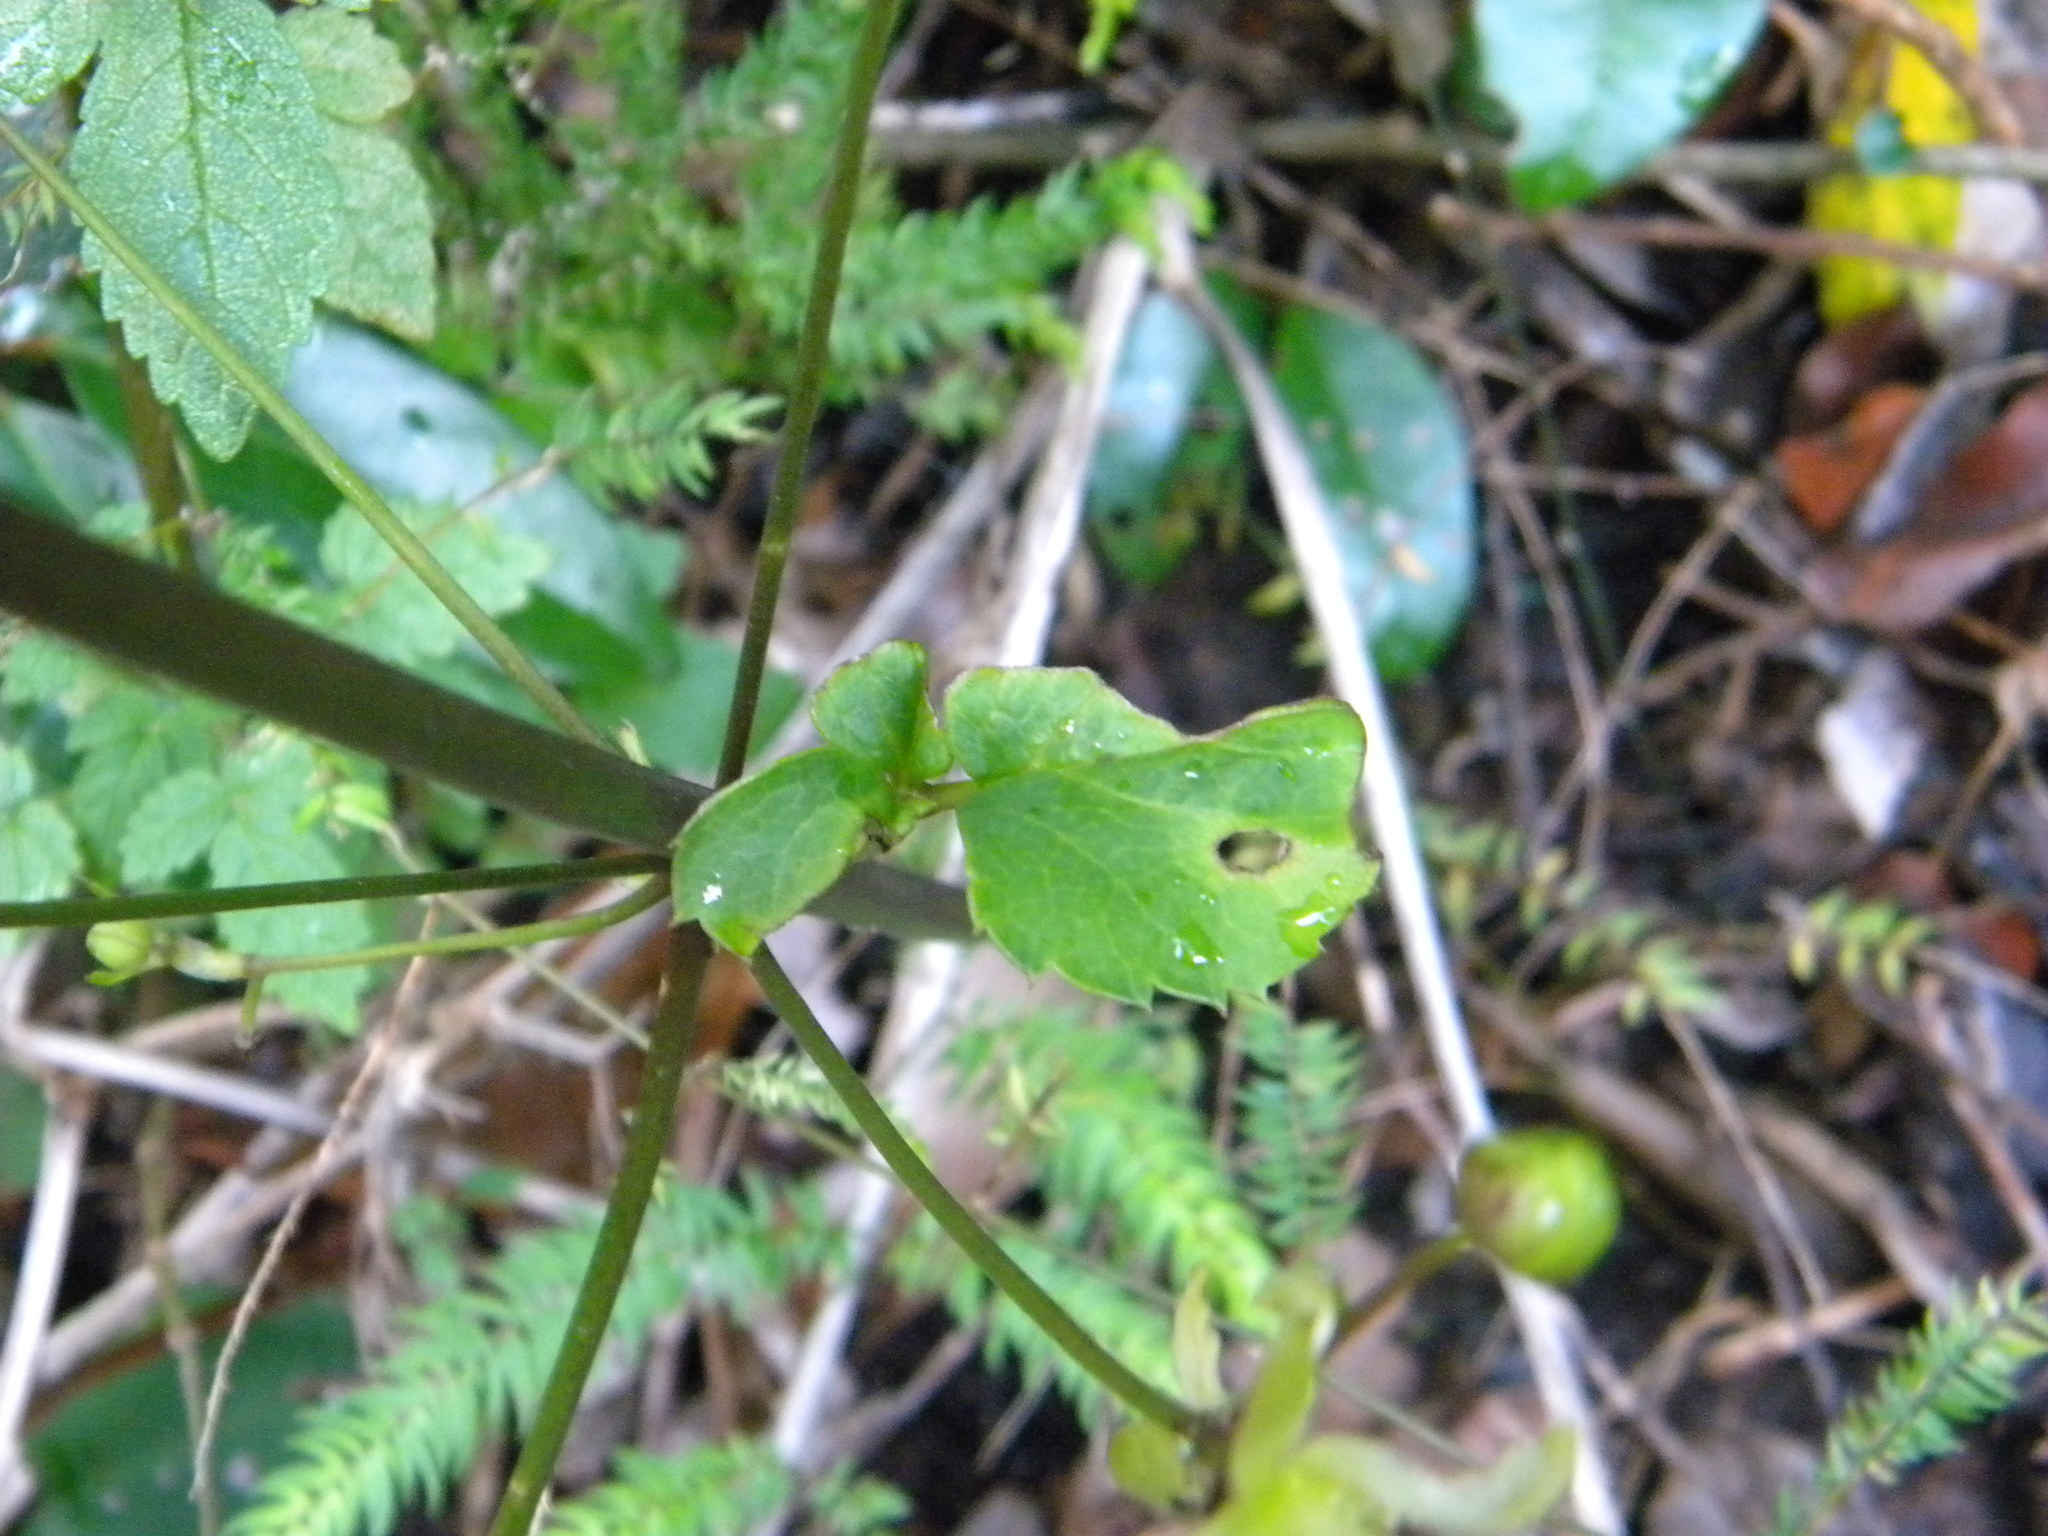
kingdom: Plantae
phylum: Tracheophyta
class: Magnoliopsida
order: Ranunculales
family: Ranunculaceae
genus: Knowltonia
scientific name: Knowltonia vesicatoria
